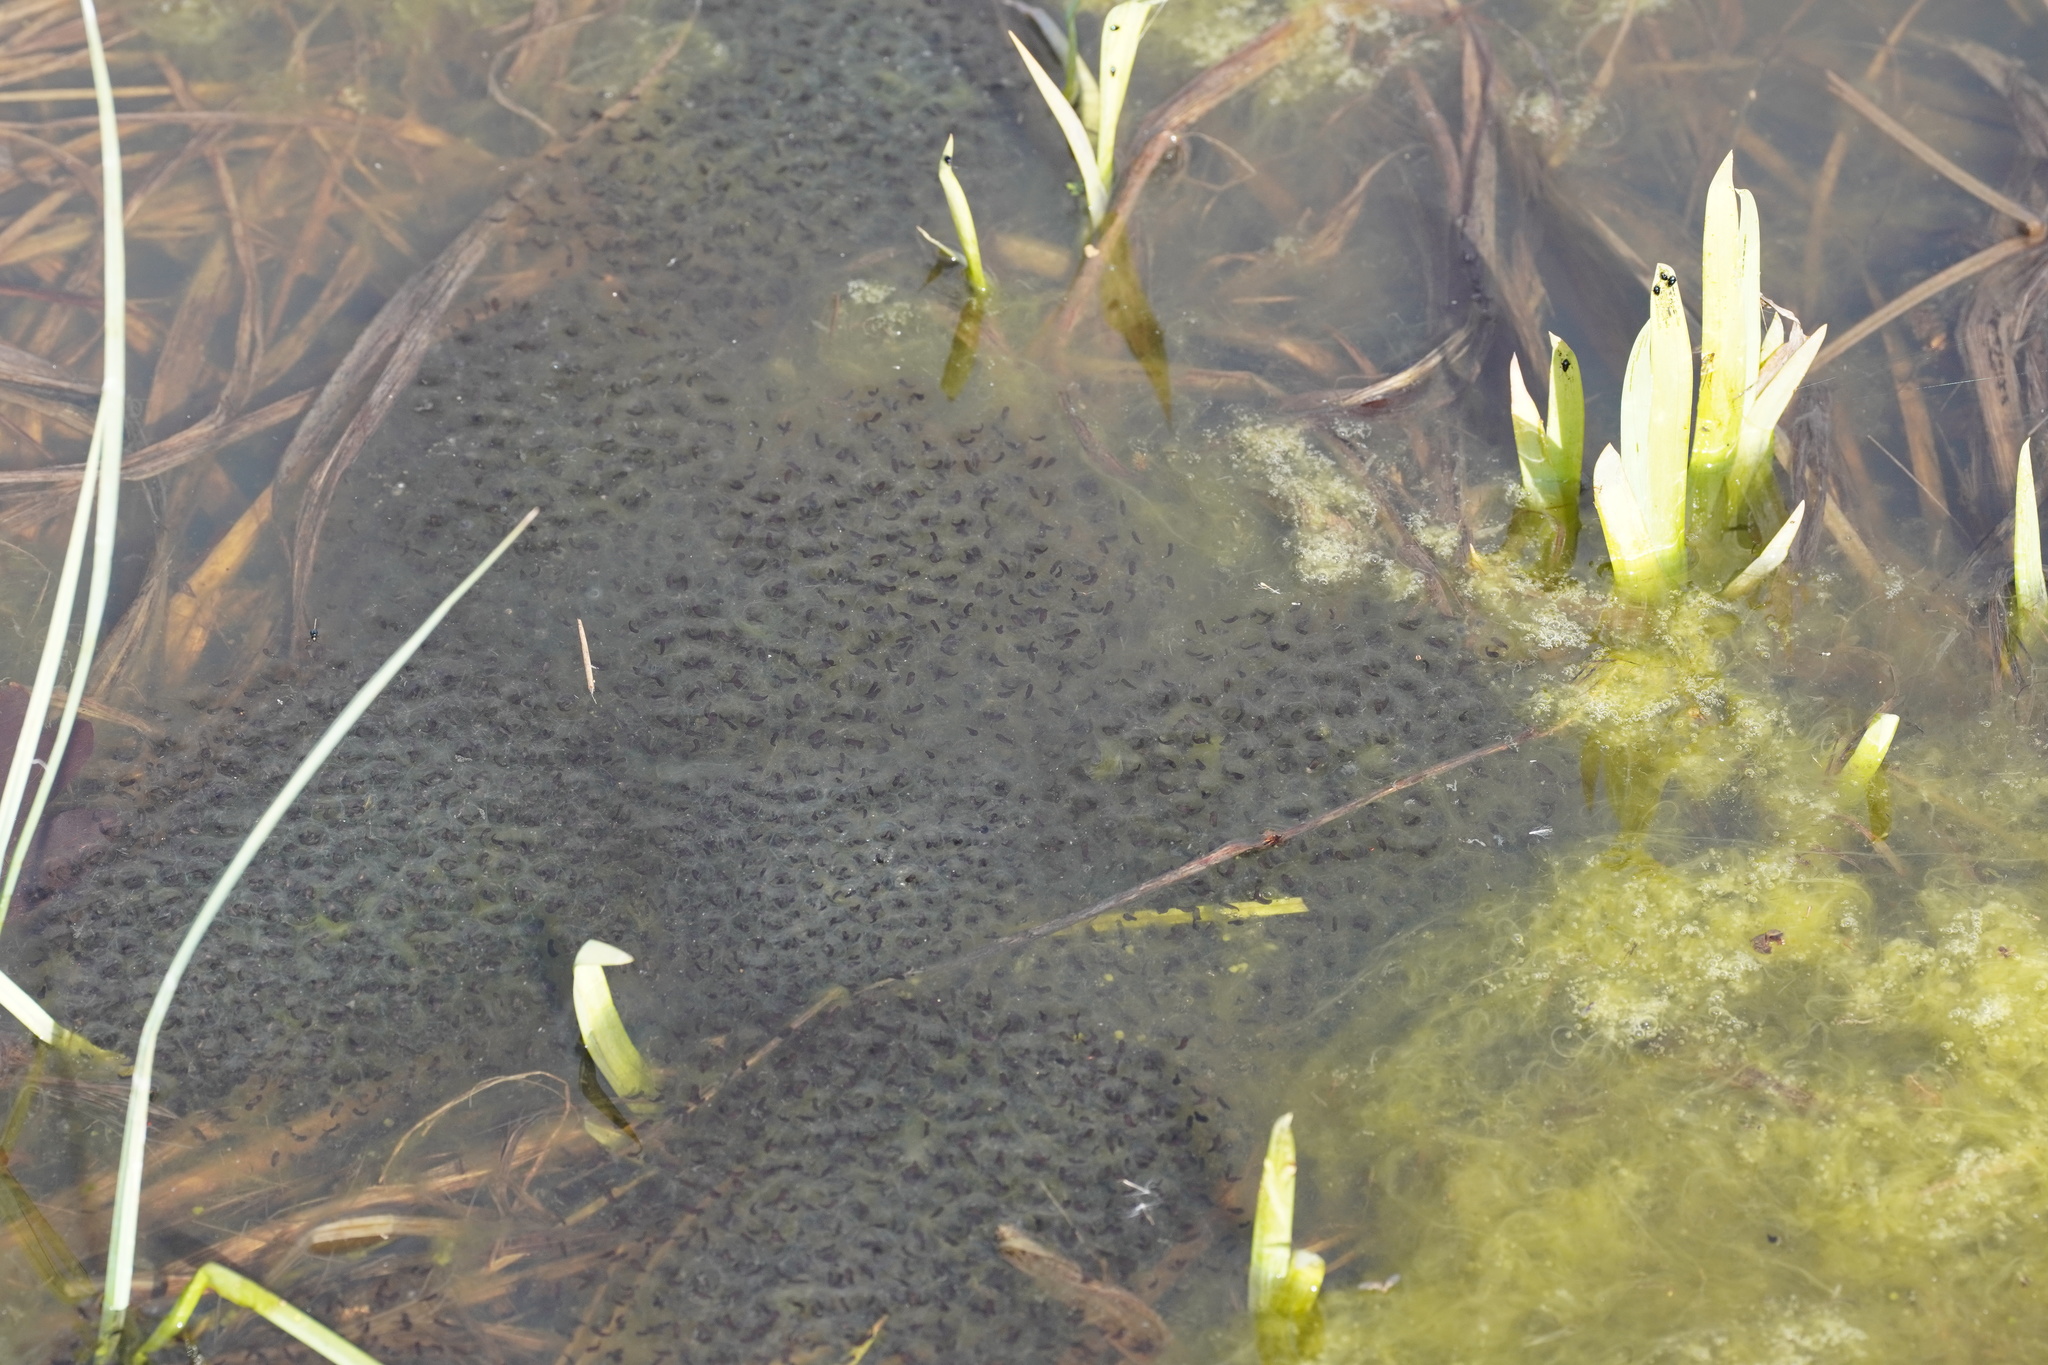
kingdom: Animalia
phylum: Chordata
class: Amphibia
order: Anura
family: Ranidae
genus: Rana
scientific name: Rana arvalis
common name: Moor frog
